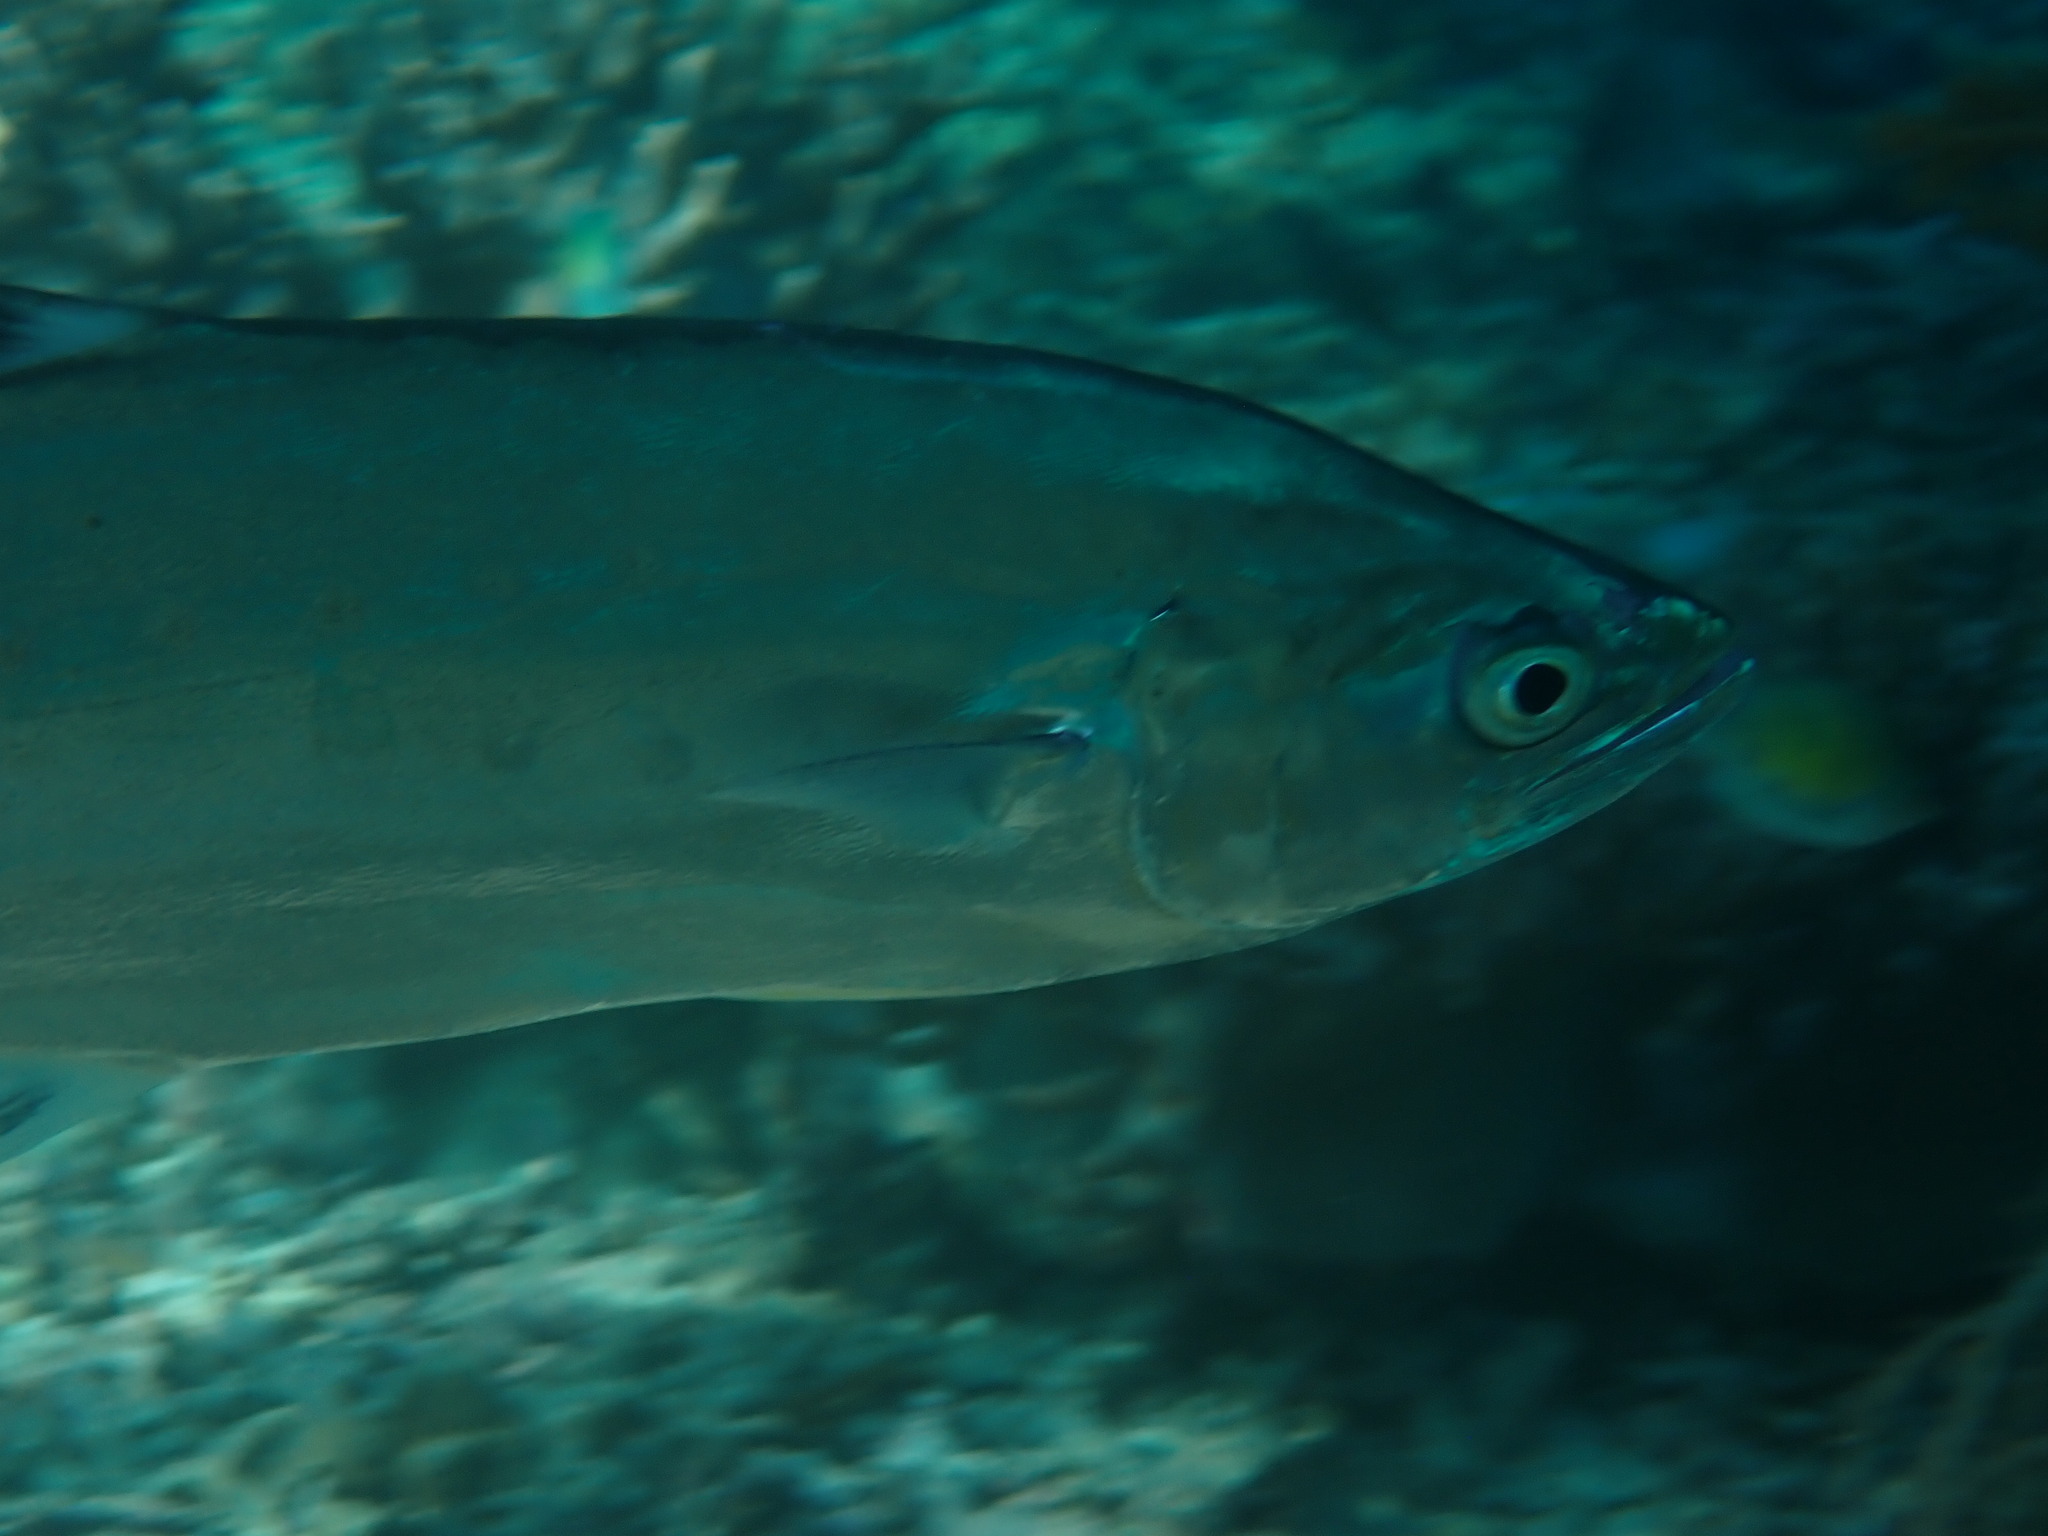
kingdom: Animalia
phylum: Chordata
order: Perciformes
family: Carangidae
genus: Scomberoides
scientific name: Scomberoides lysan
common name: Doublespotted queenfish
